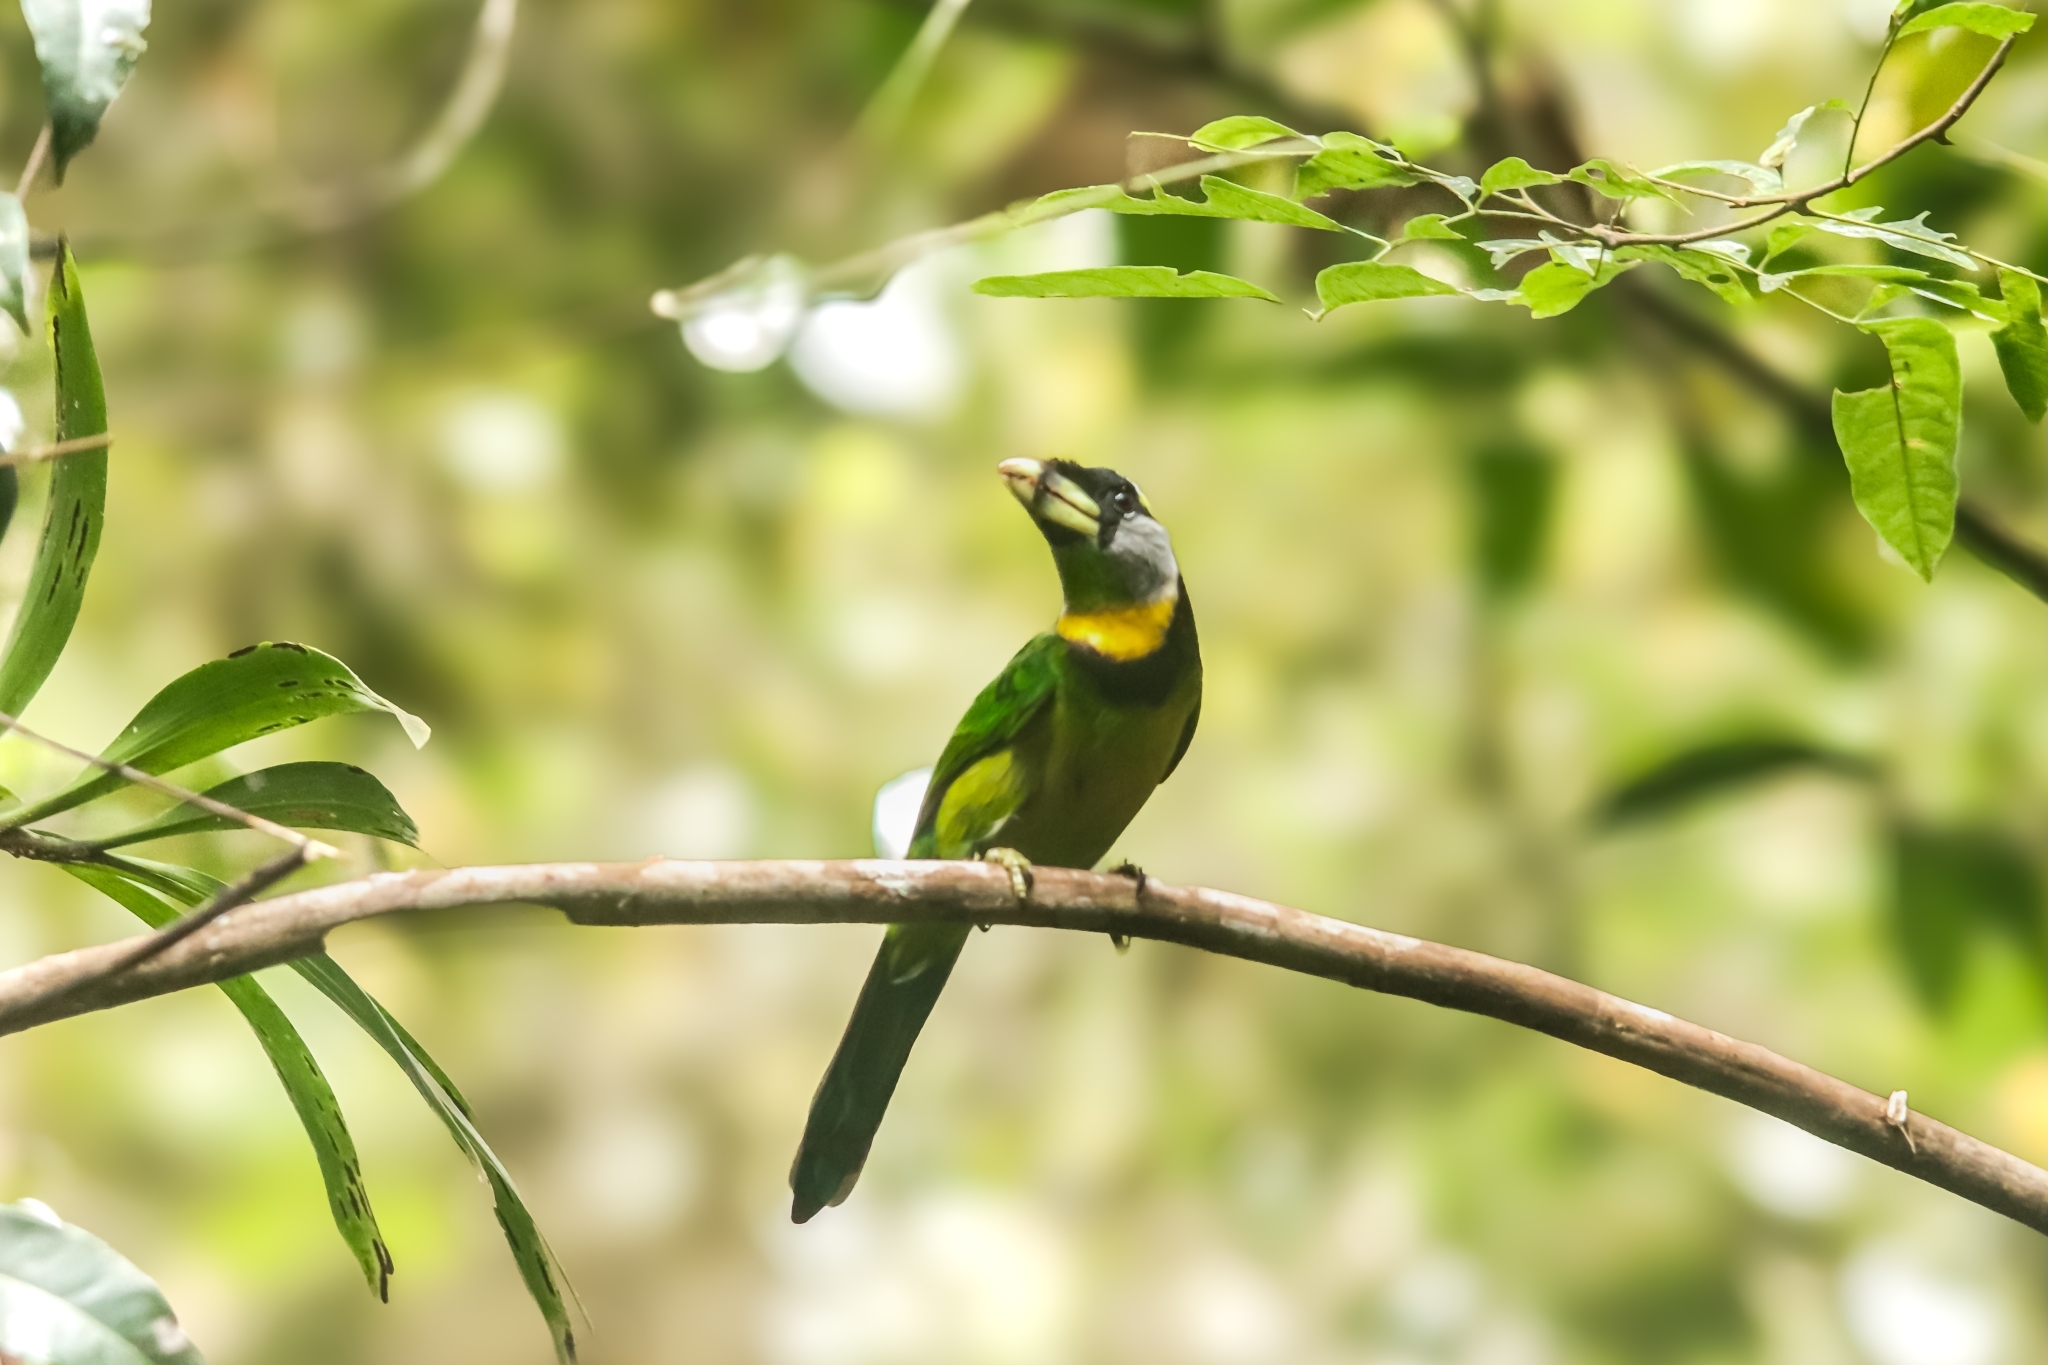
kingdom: Animalia
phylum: Chordata
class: Aves
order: Piciformes
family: Megalaimidae
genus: Psilopogon
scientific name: Psilopogon pyrolophus
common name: Fire-tufted barbet
